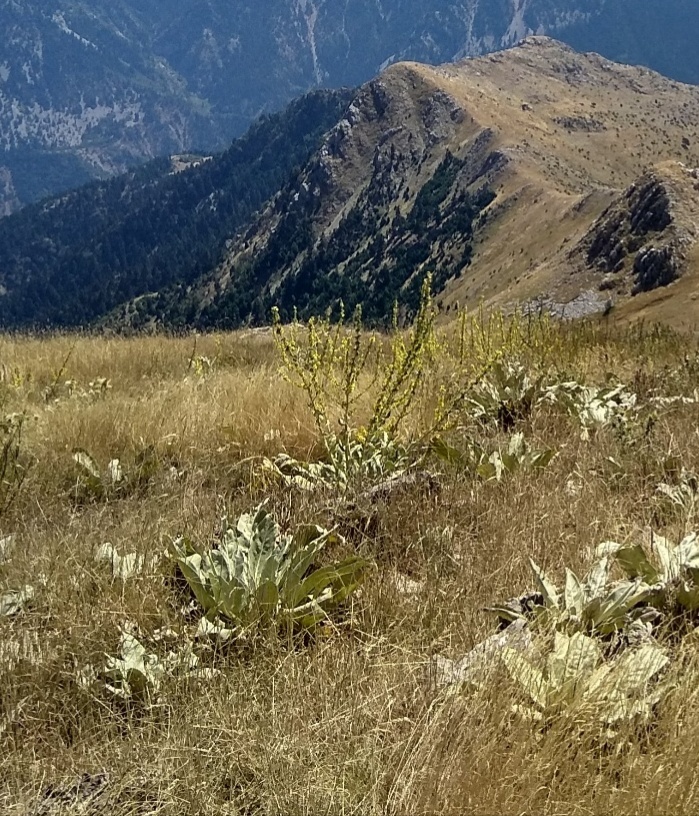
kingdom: Plantae
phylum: Tracheophyta
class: Magnoliopsida
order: Lamiales
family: Scrophulariaceae
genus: Verbascum
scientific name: Verbascum phlomoides
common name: Orange mullein
